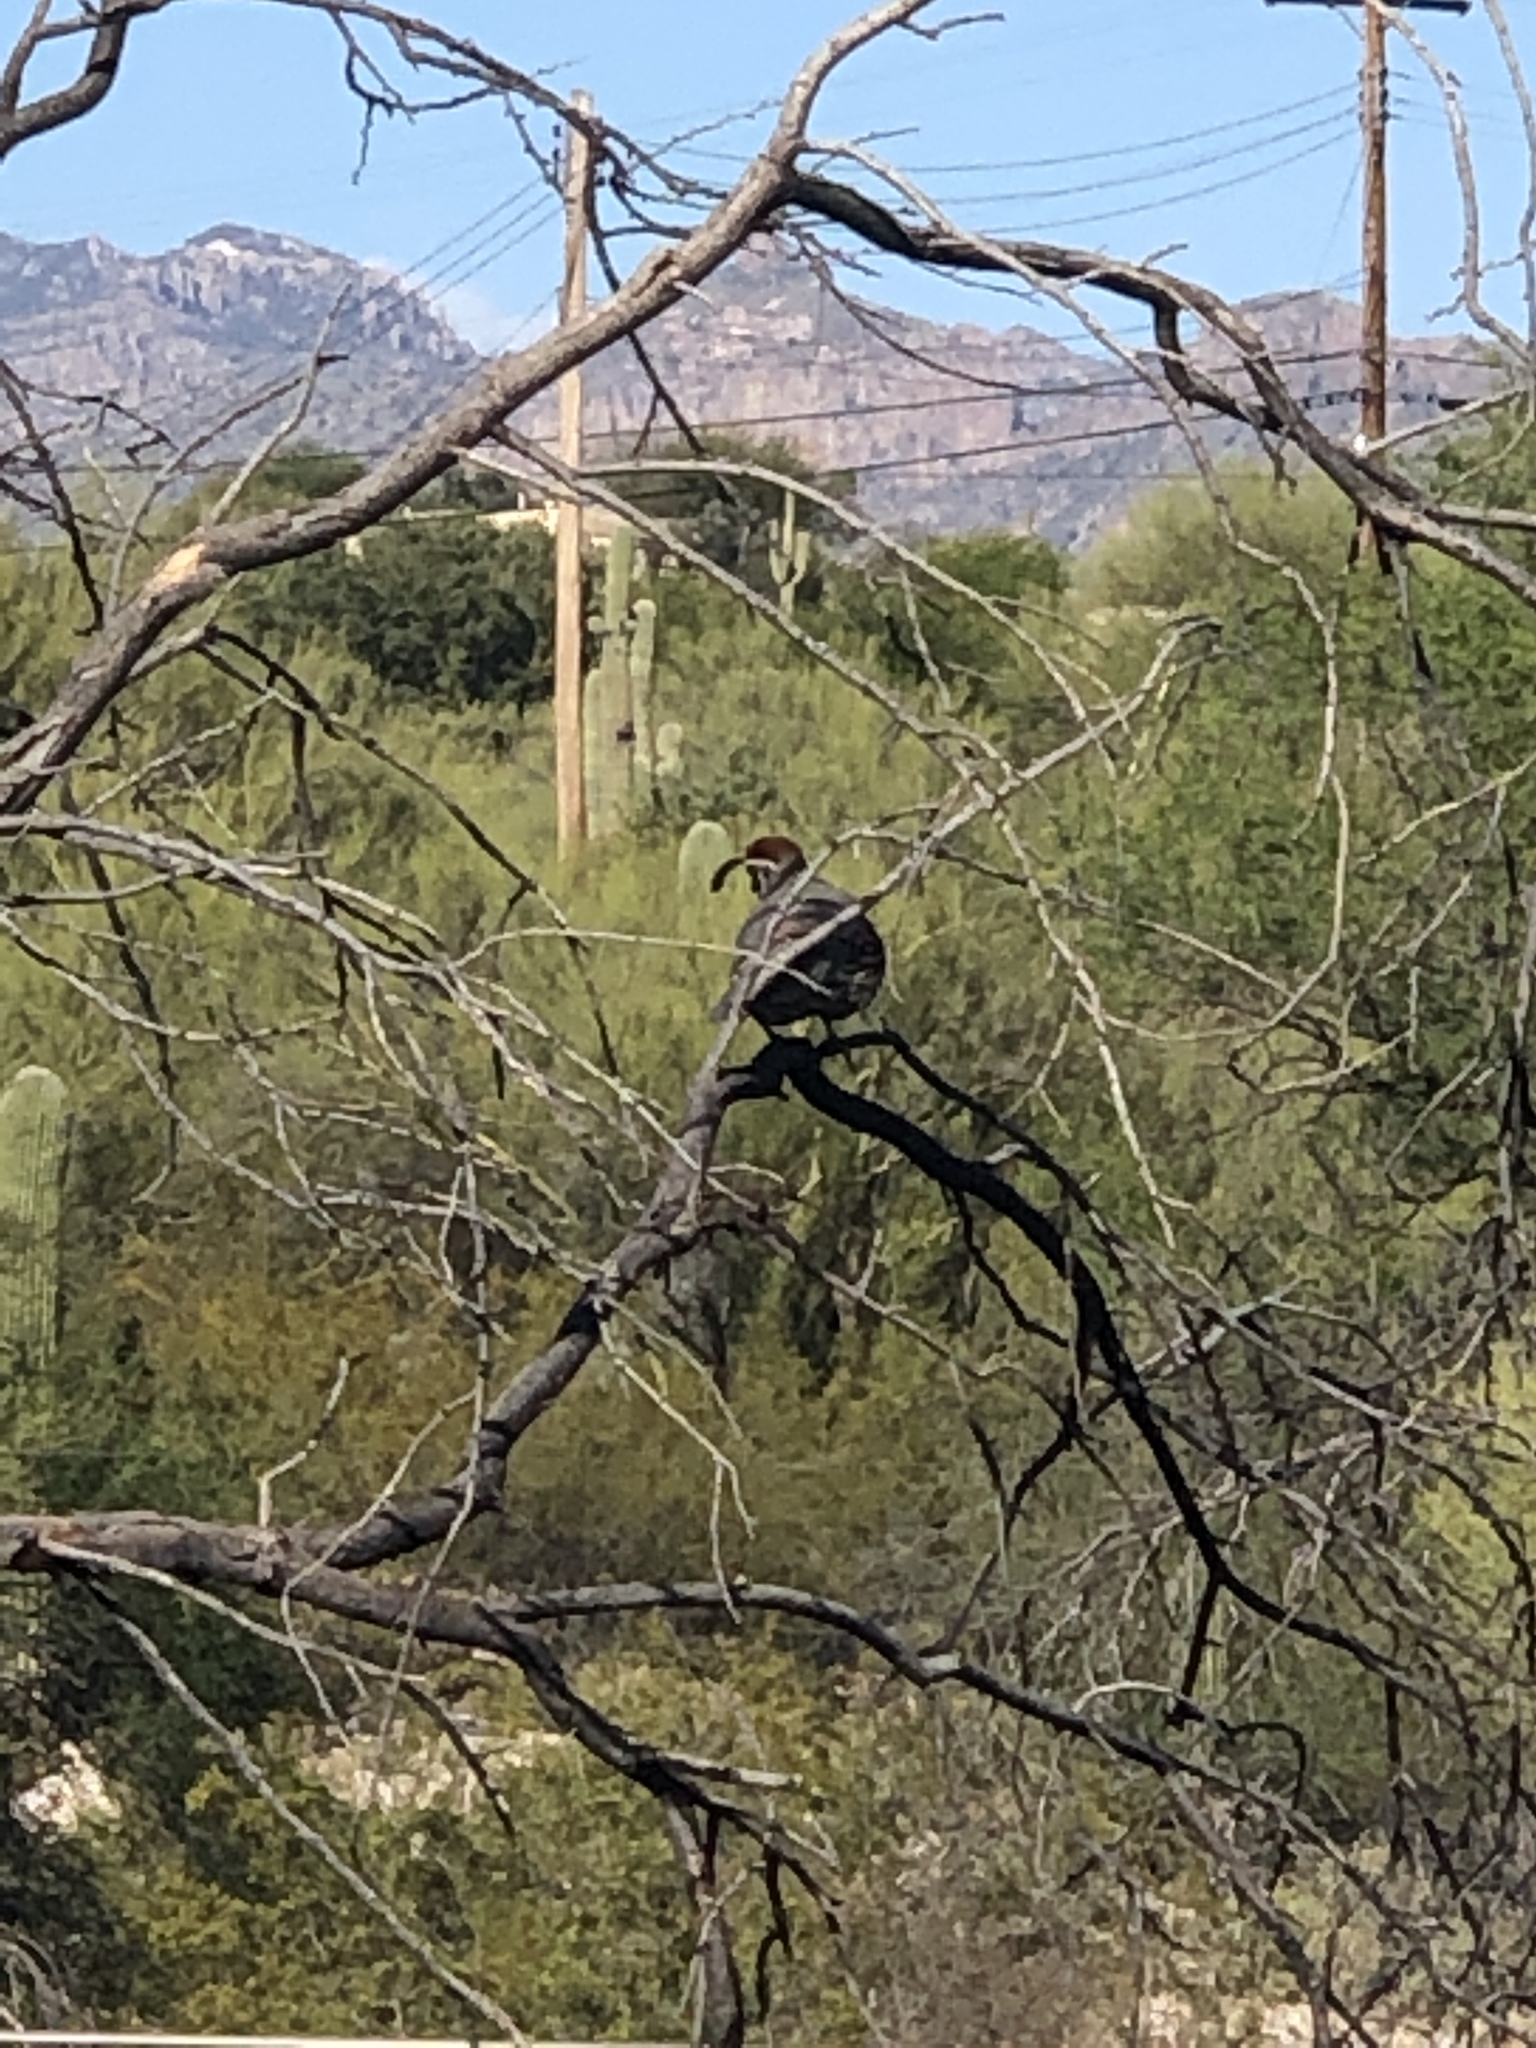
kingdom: Animalia
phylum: Chordata
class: Aves
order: Galliformes
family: Odontophoridae
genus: Callipepla
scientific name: Callipepla gambelii
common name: Gambel's quail
